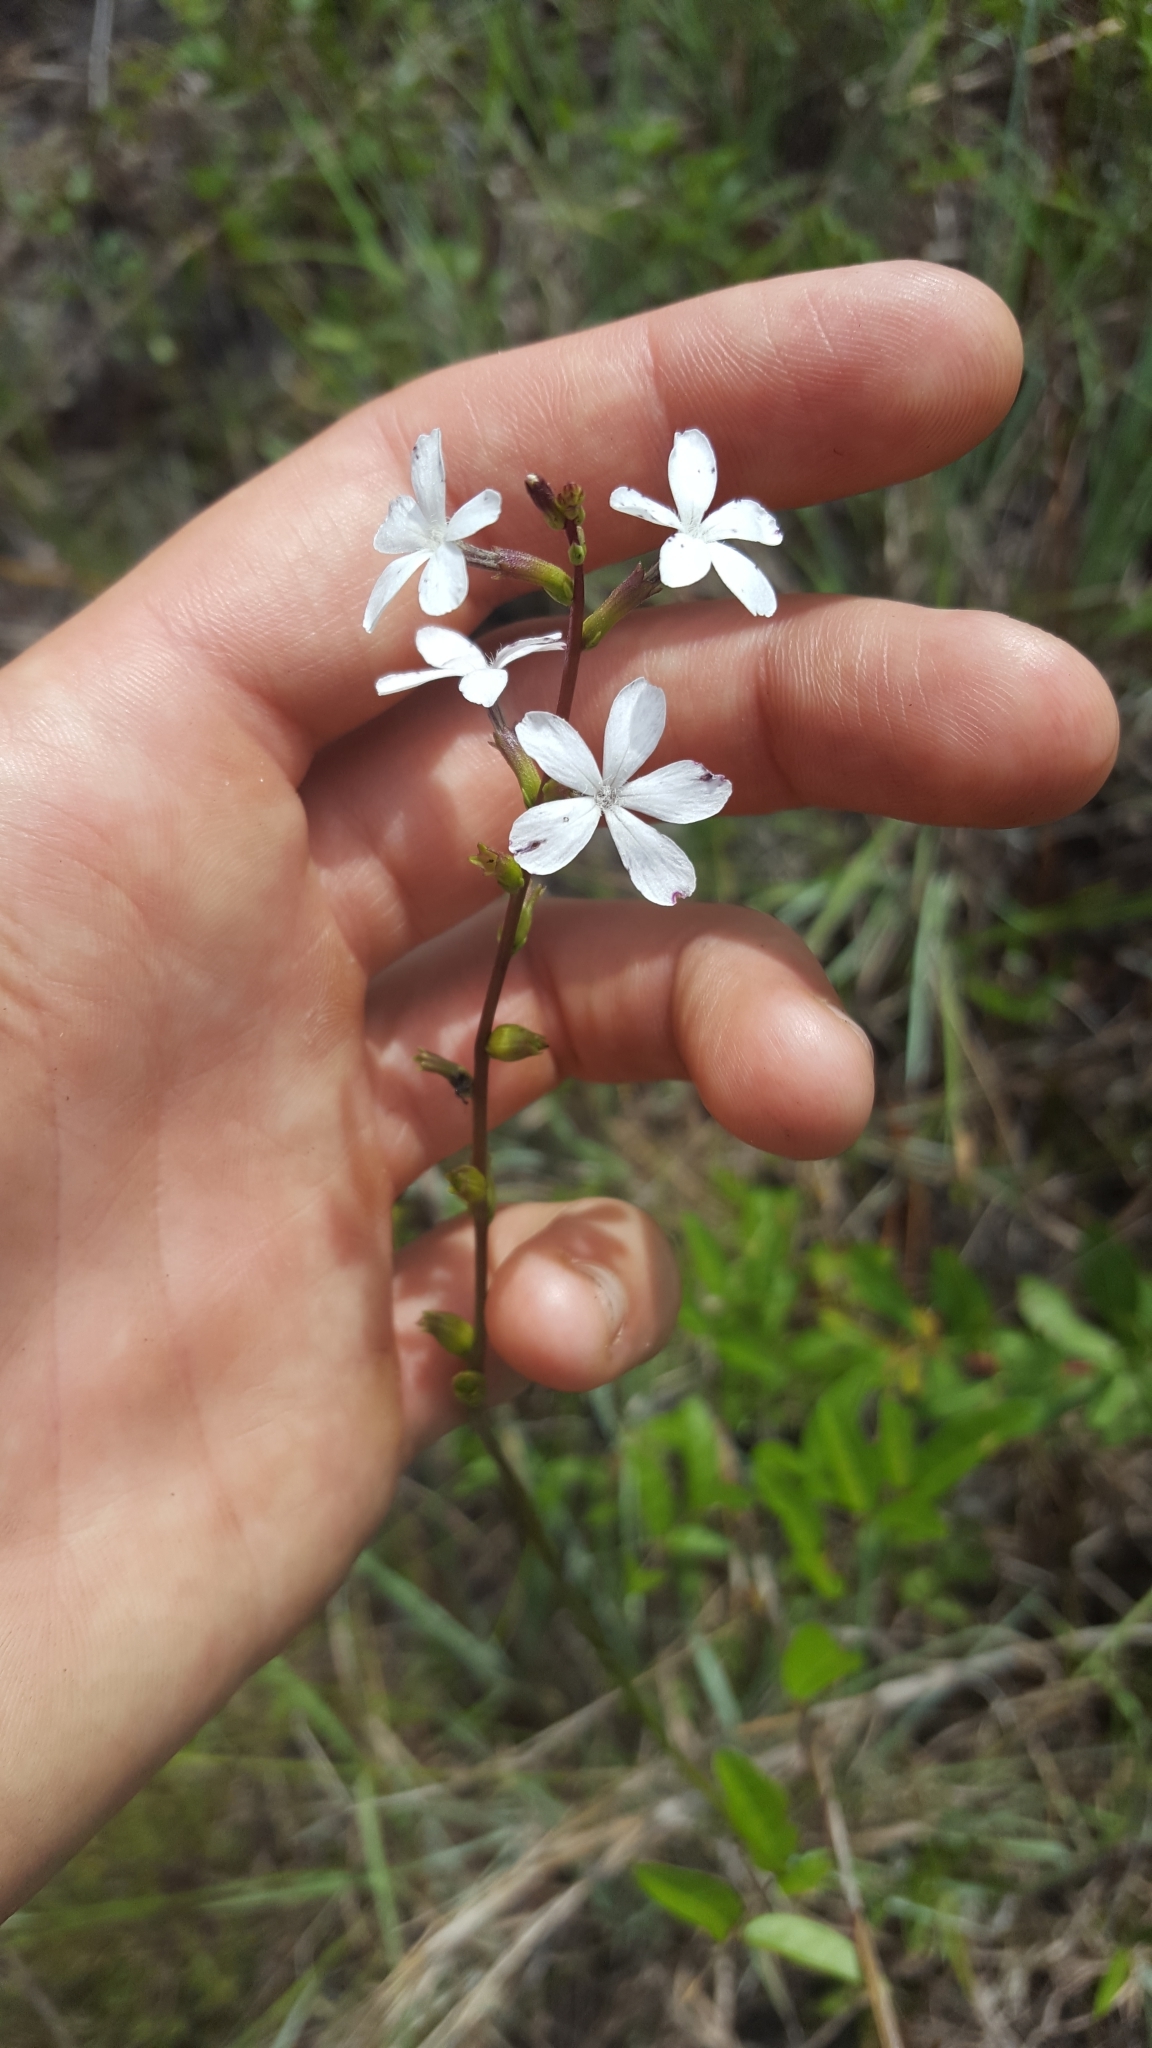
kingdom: Plantae
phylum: Tracheophyta
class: Magnoliopsida
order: Lamiales
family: Orobanchaceae
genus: Buchnera
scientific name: Buchnera floridana
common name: Florida bluehearts
